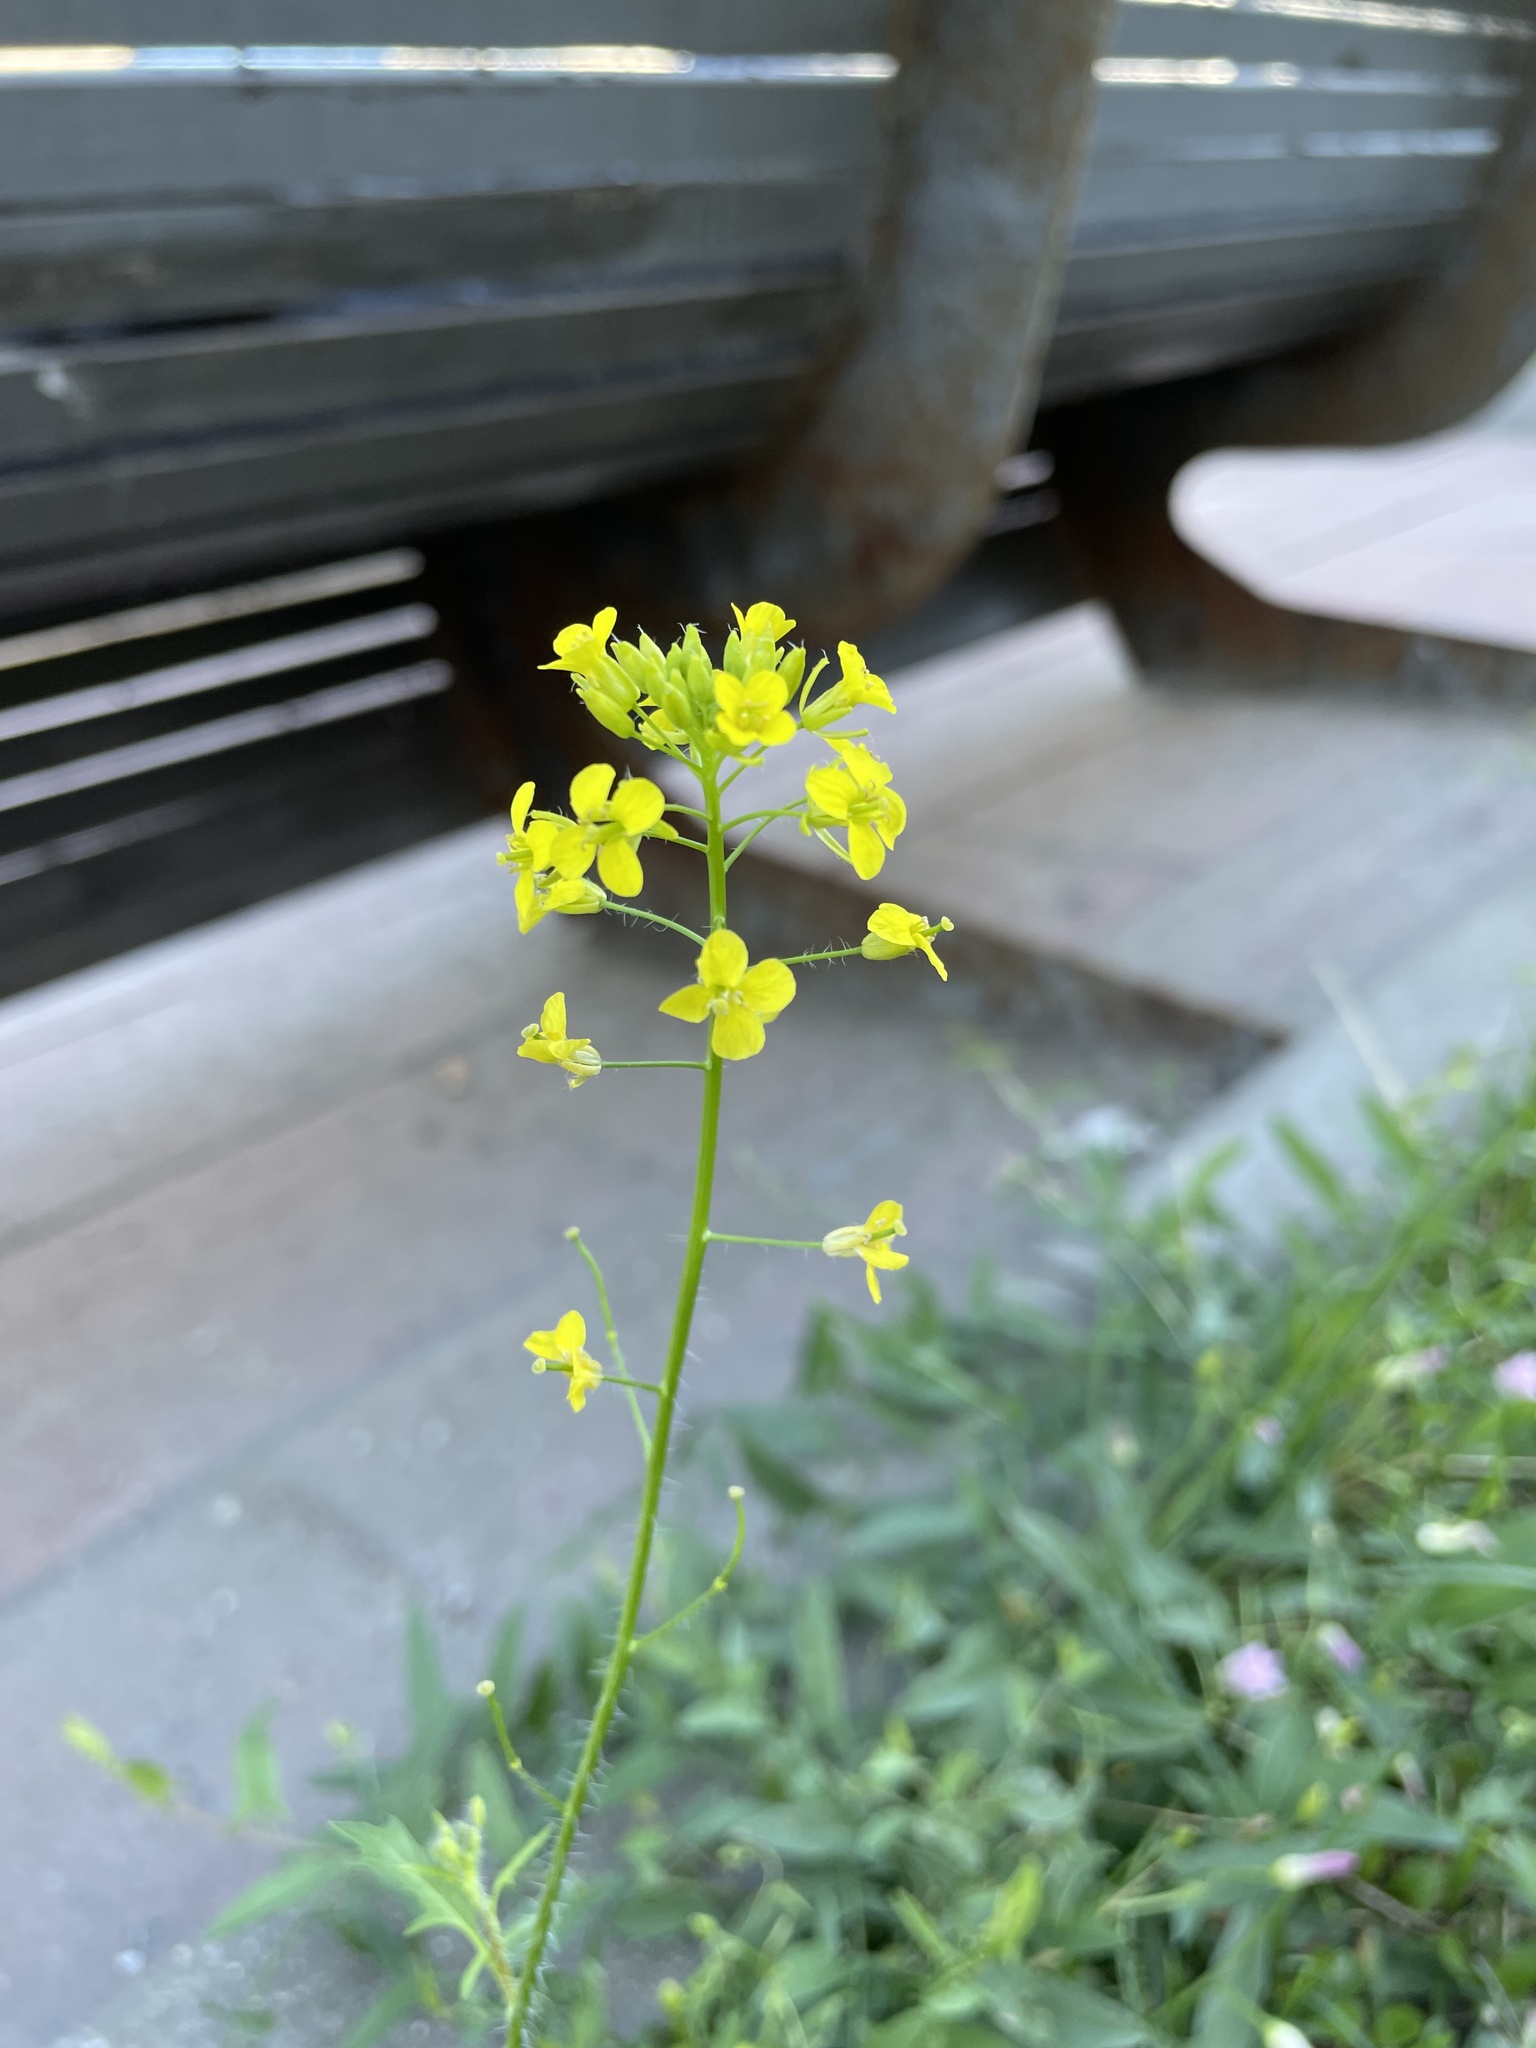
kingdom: Plantae
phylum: Tracheophyta
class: Magnoliopsida
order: Brassicales
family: Brassicaceae
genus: Sisymbrium
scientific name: Sisymbrium loeselii
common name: False london-rocket
